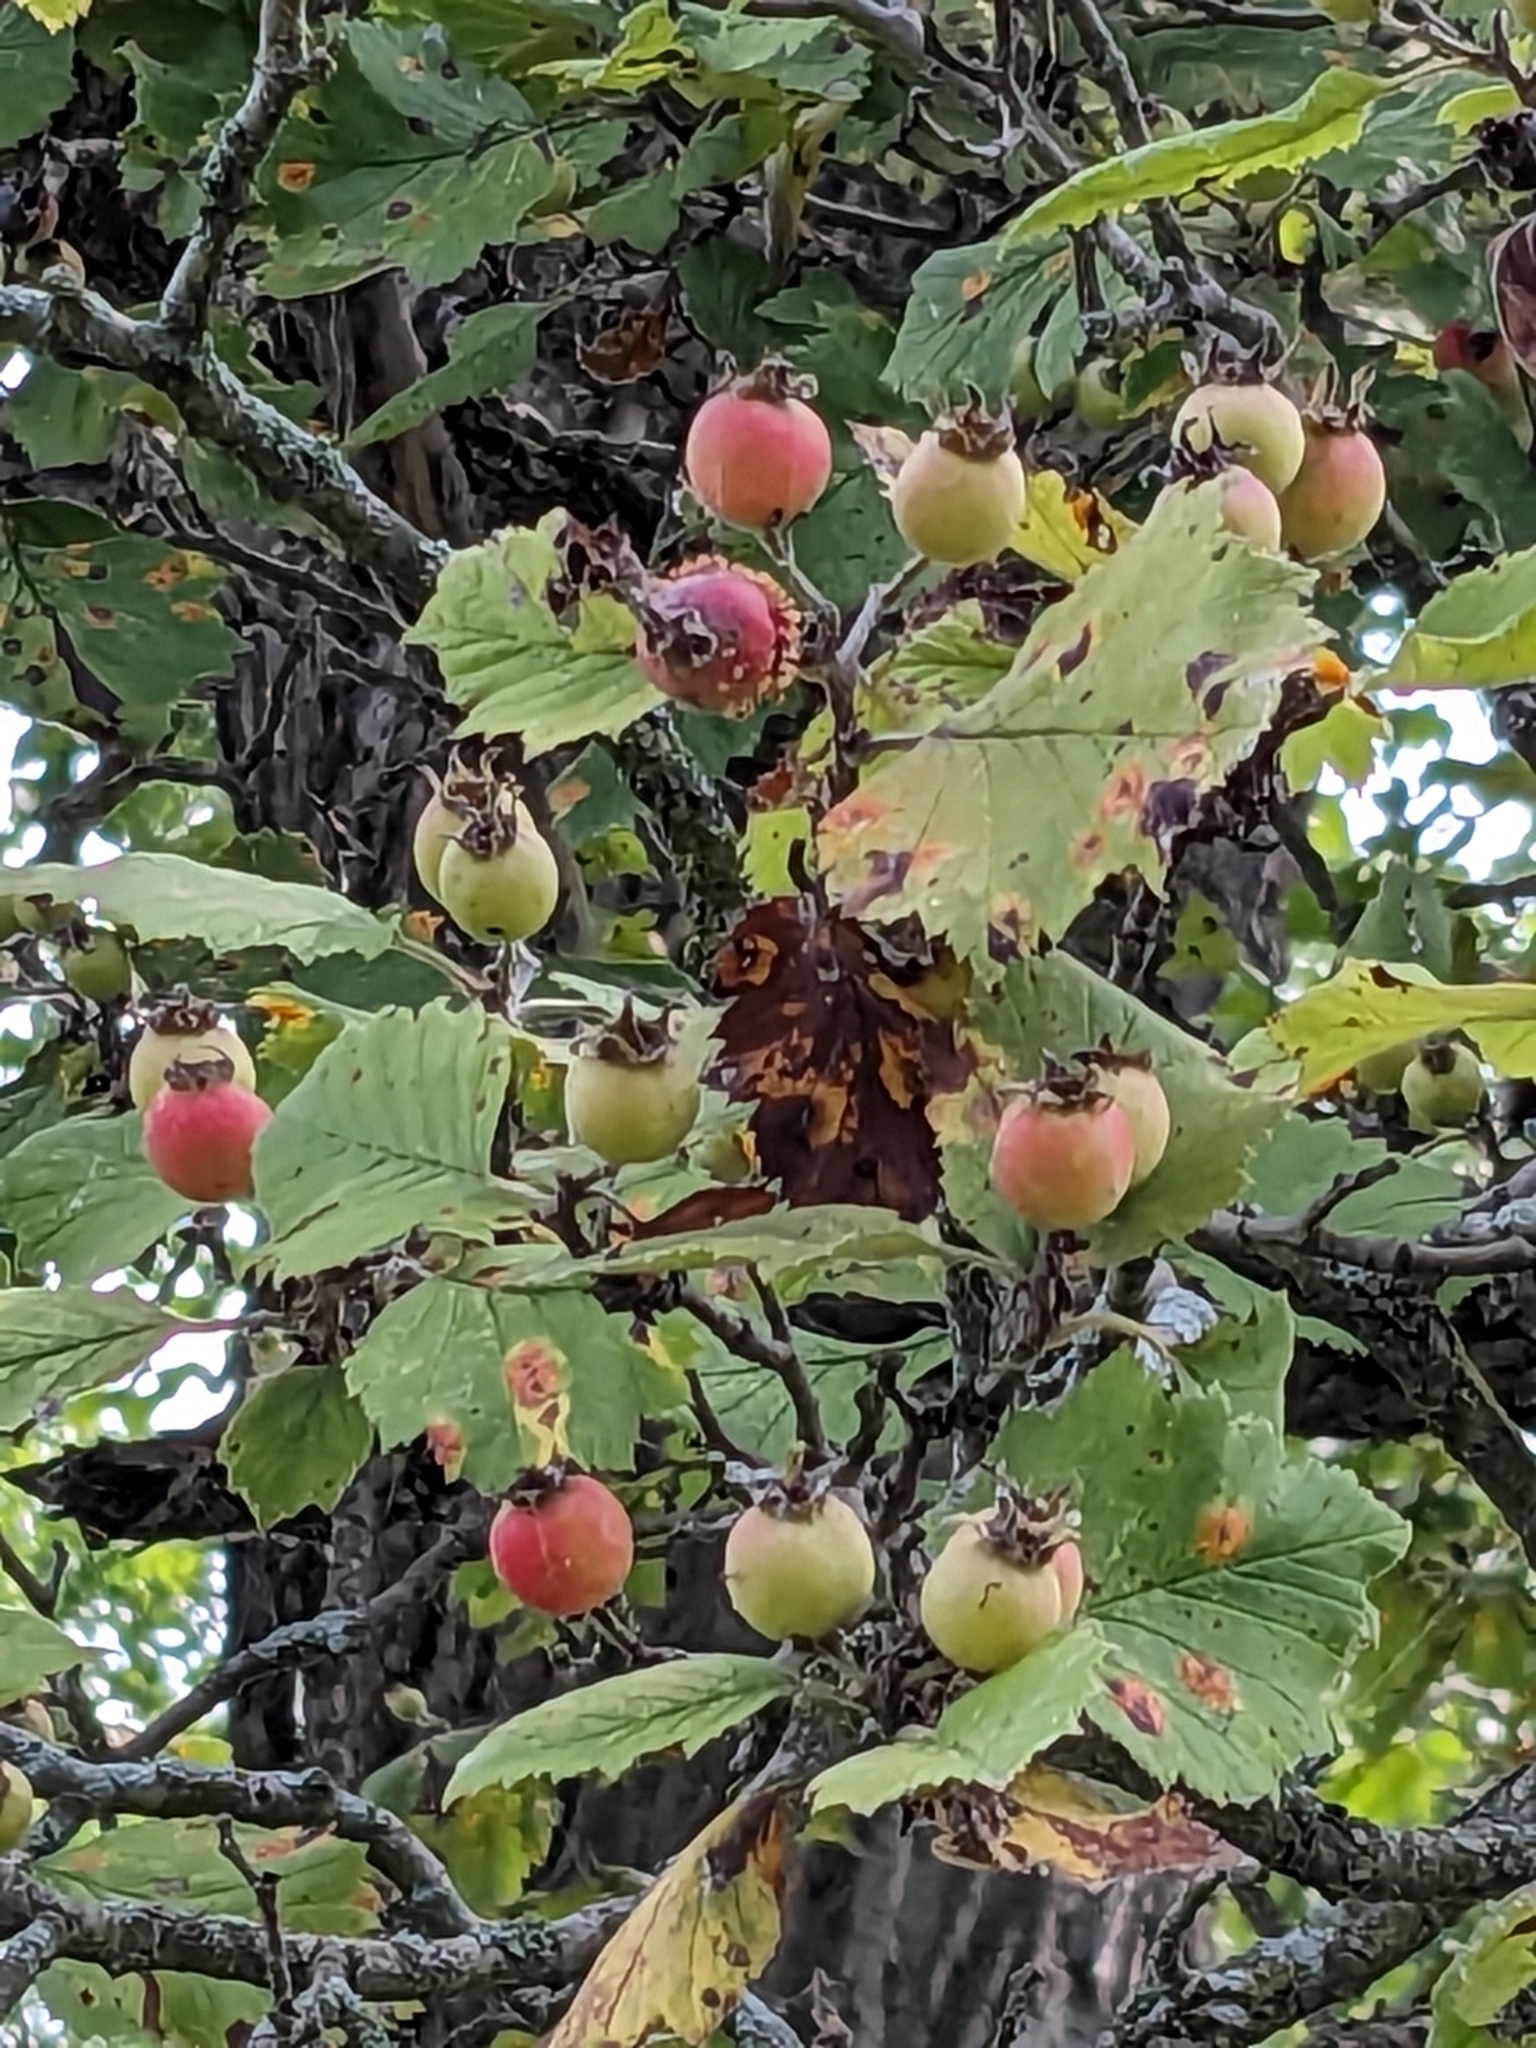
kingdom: Plantae
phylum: Tracheophyta
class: Magnoliopsida
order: Rosales
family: Rosaceae
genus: Crataegus
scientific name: Crataegus mollis
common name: Downy hawthorn
